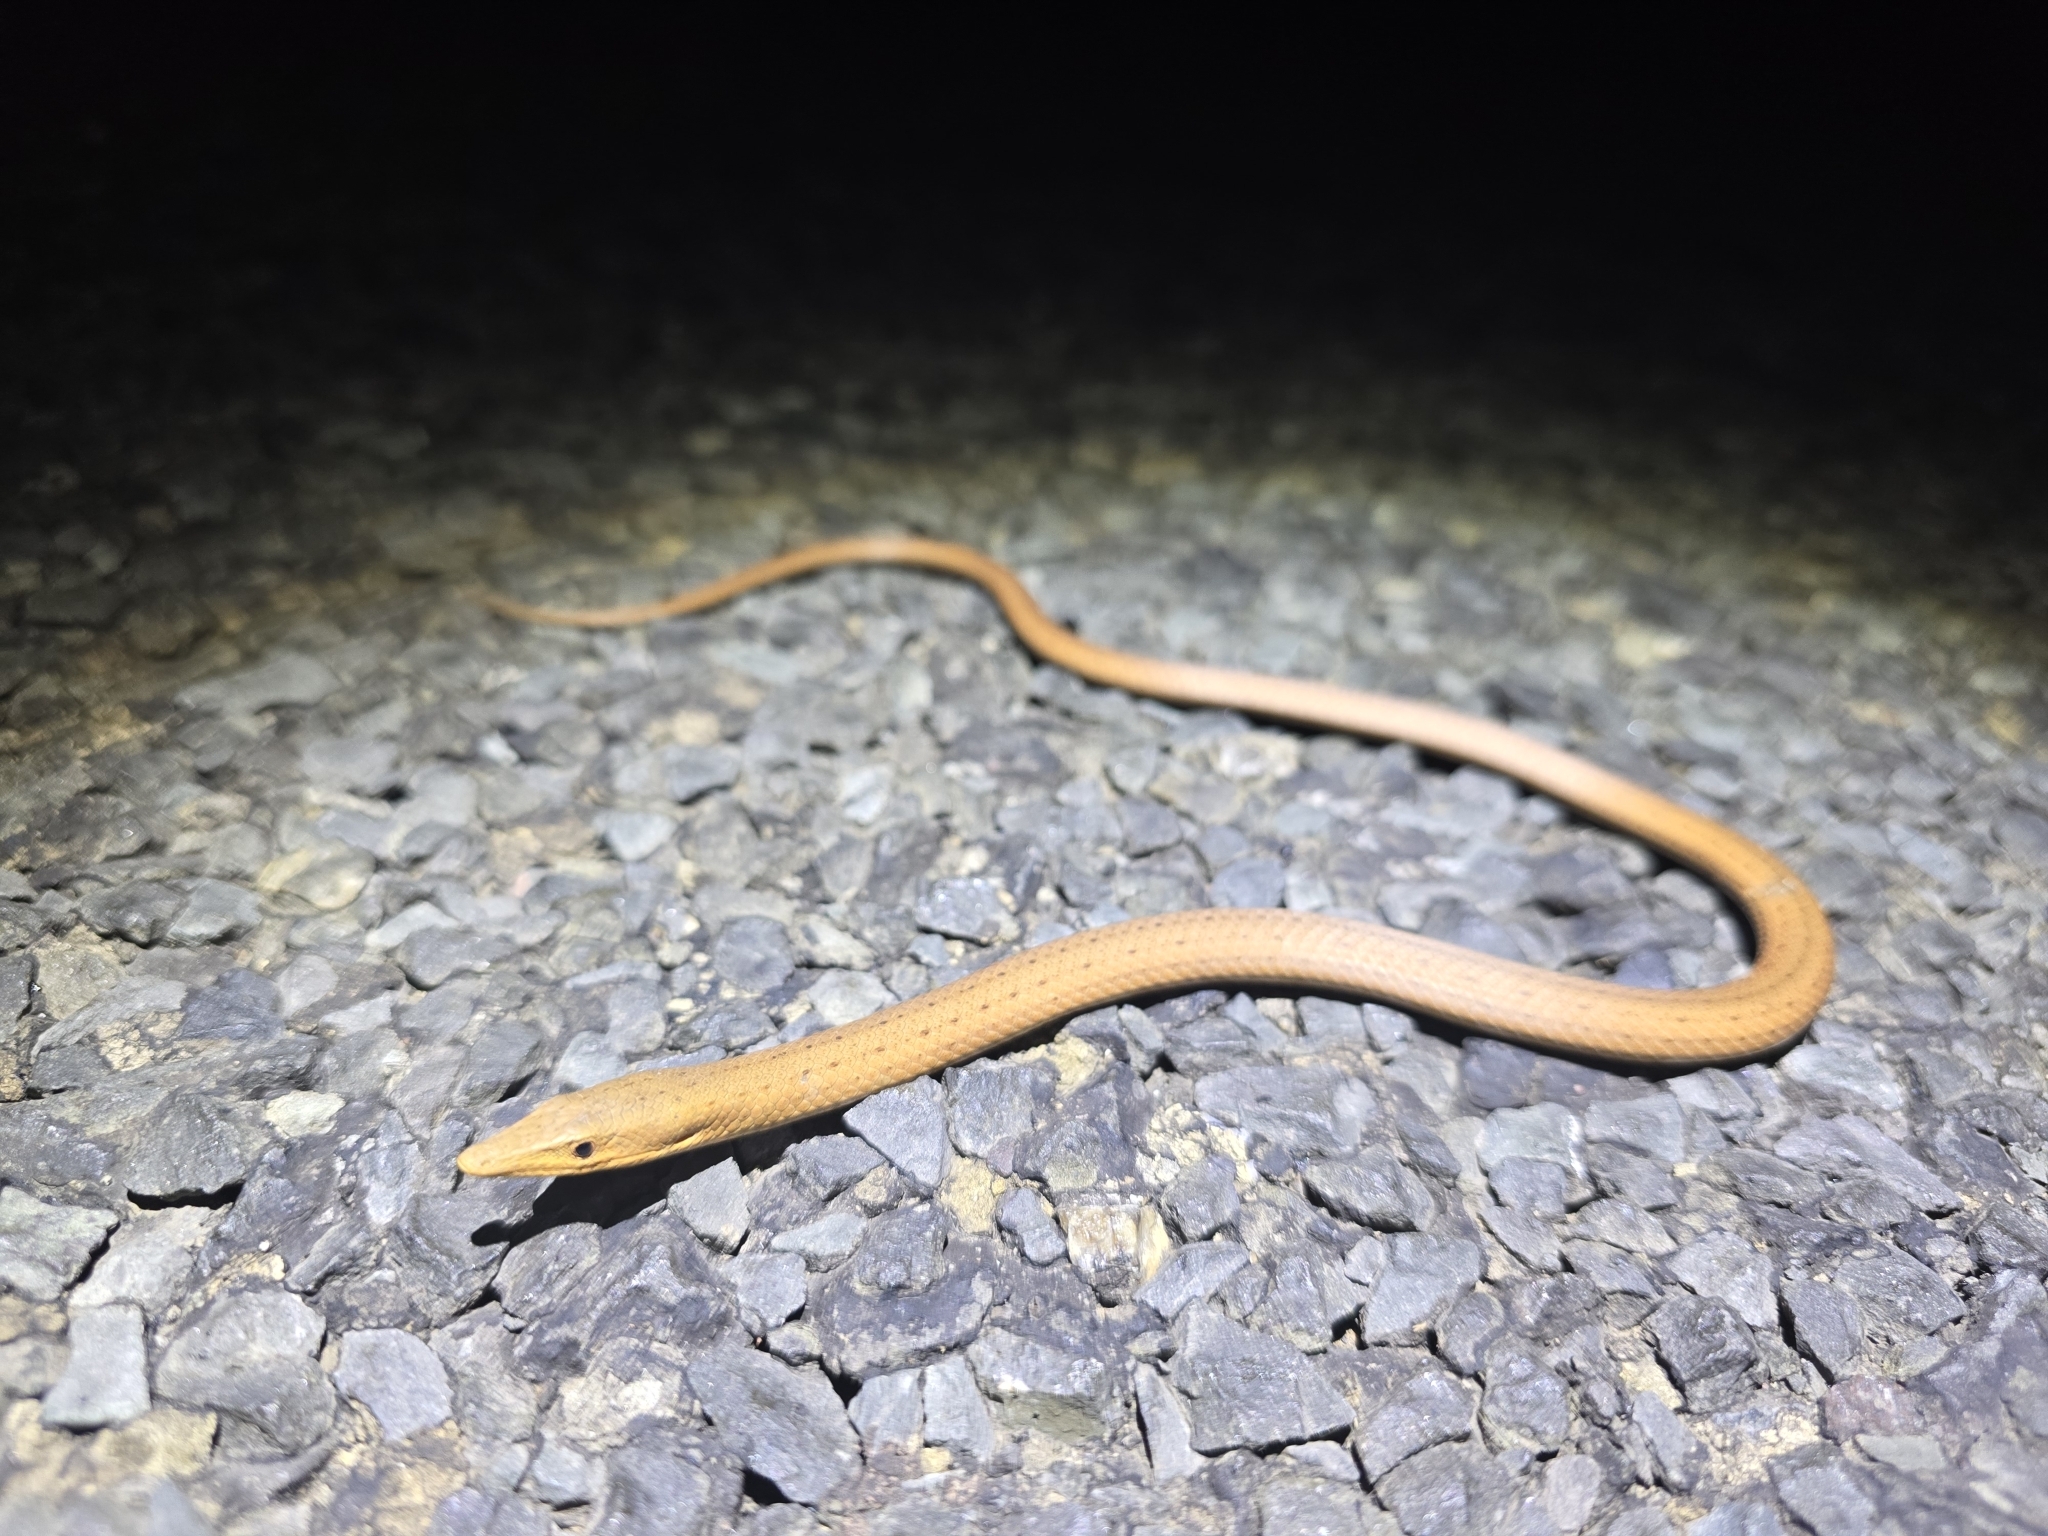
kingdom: Animalia
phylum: Chordata
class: Squamata
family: Pygopodidae
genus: Lialis
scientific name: Lialis burtonis
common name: Burton's legless lizard
